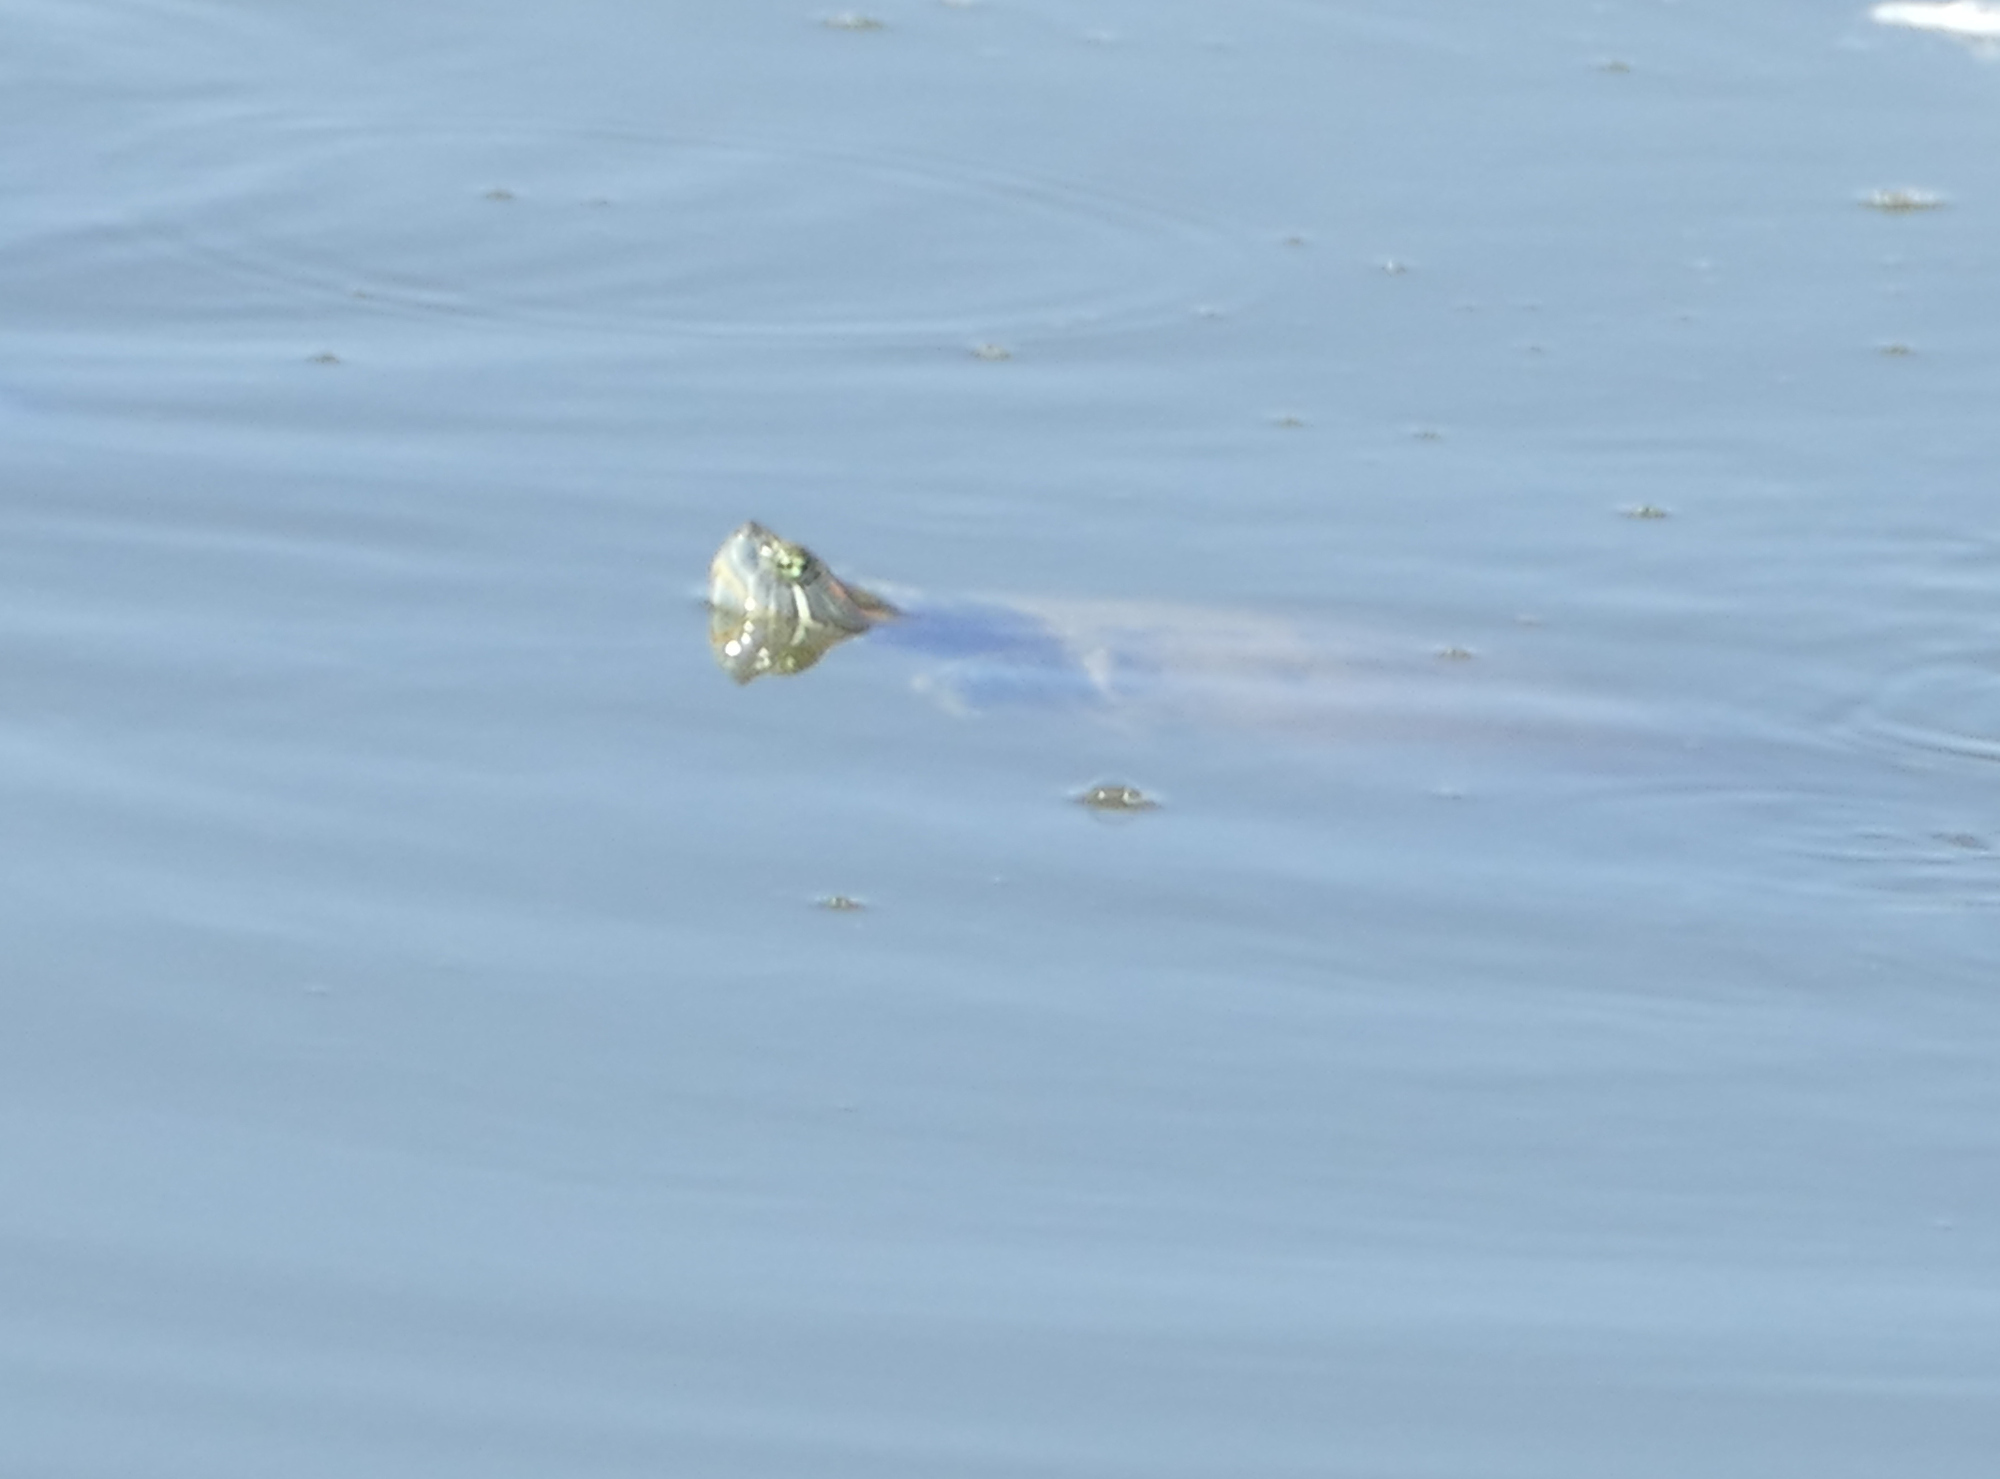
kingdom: Animalia
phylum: Chordata
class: Testudines
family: Emydidae
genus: Trachemys
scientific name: Trachemys scripta
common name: Slider
